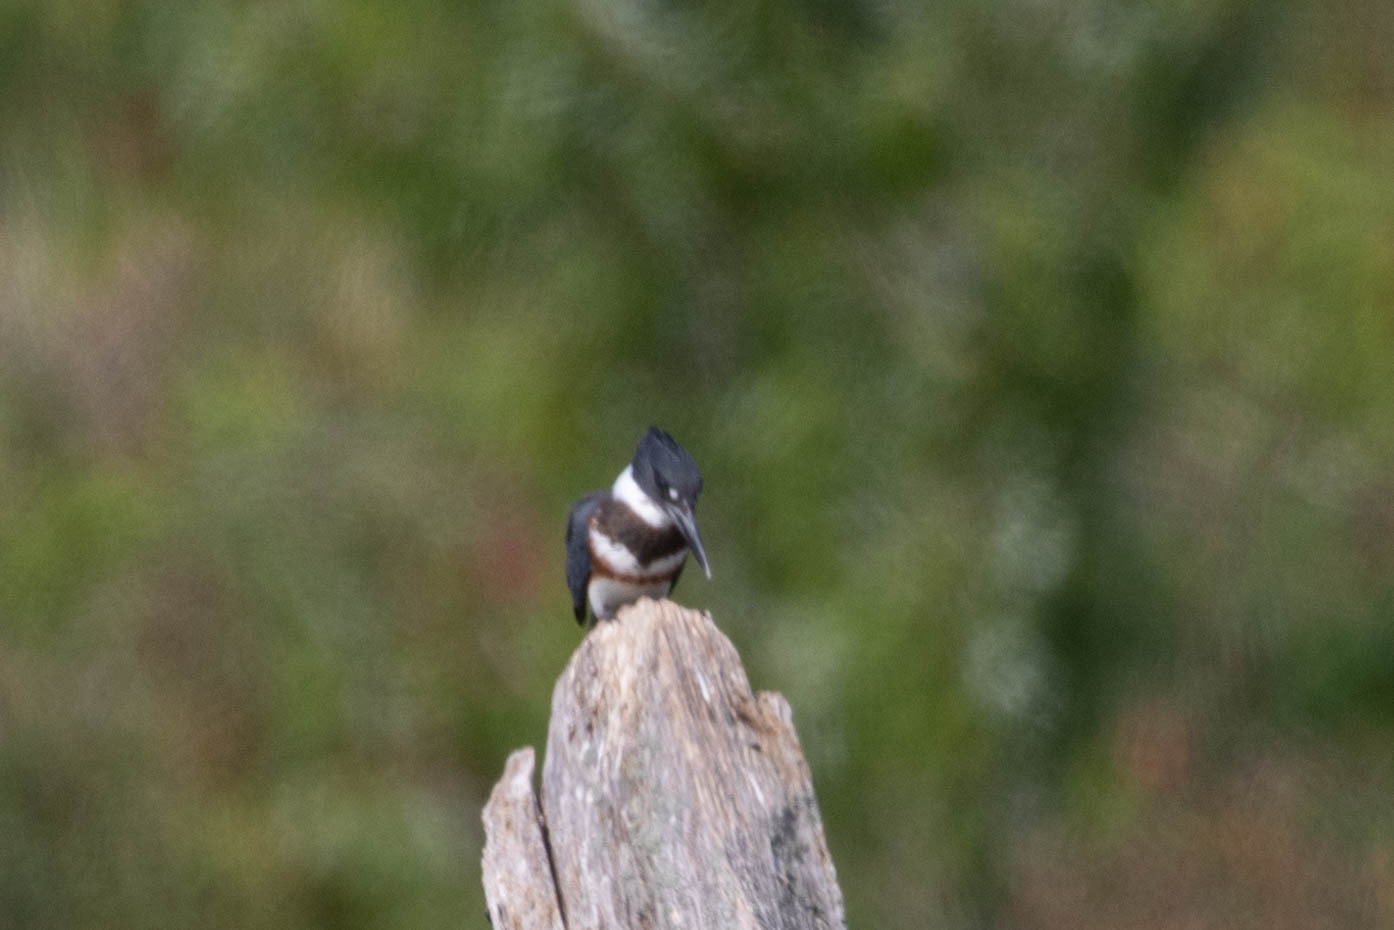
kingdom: Animalia
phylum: Chordata
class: Aves
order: Coraciiformes
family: Alcedinidae
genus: Megaceryle
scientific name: Megaceryle alcyon
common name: Belted kingfisher
